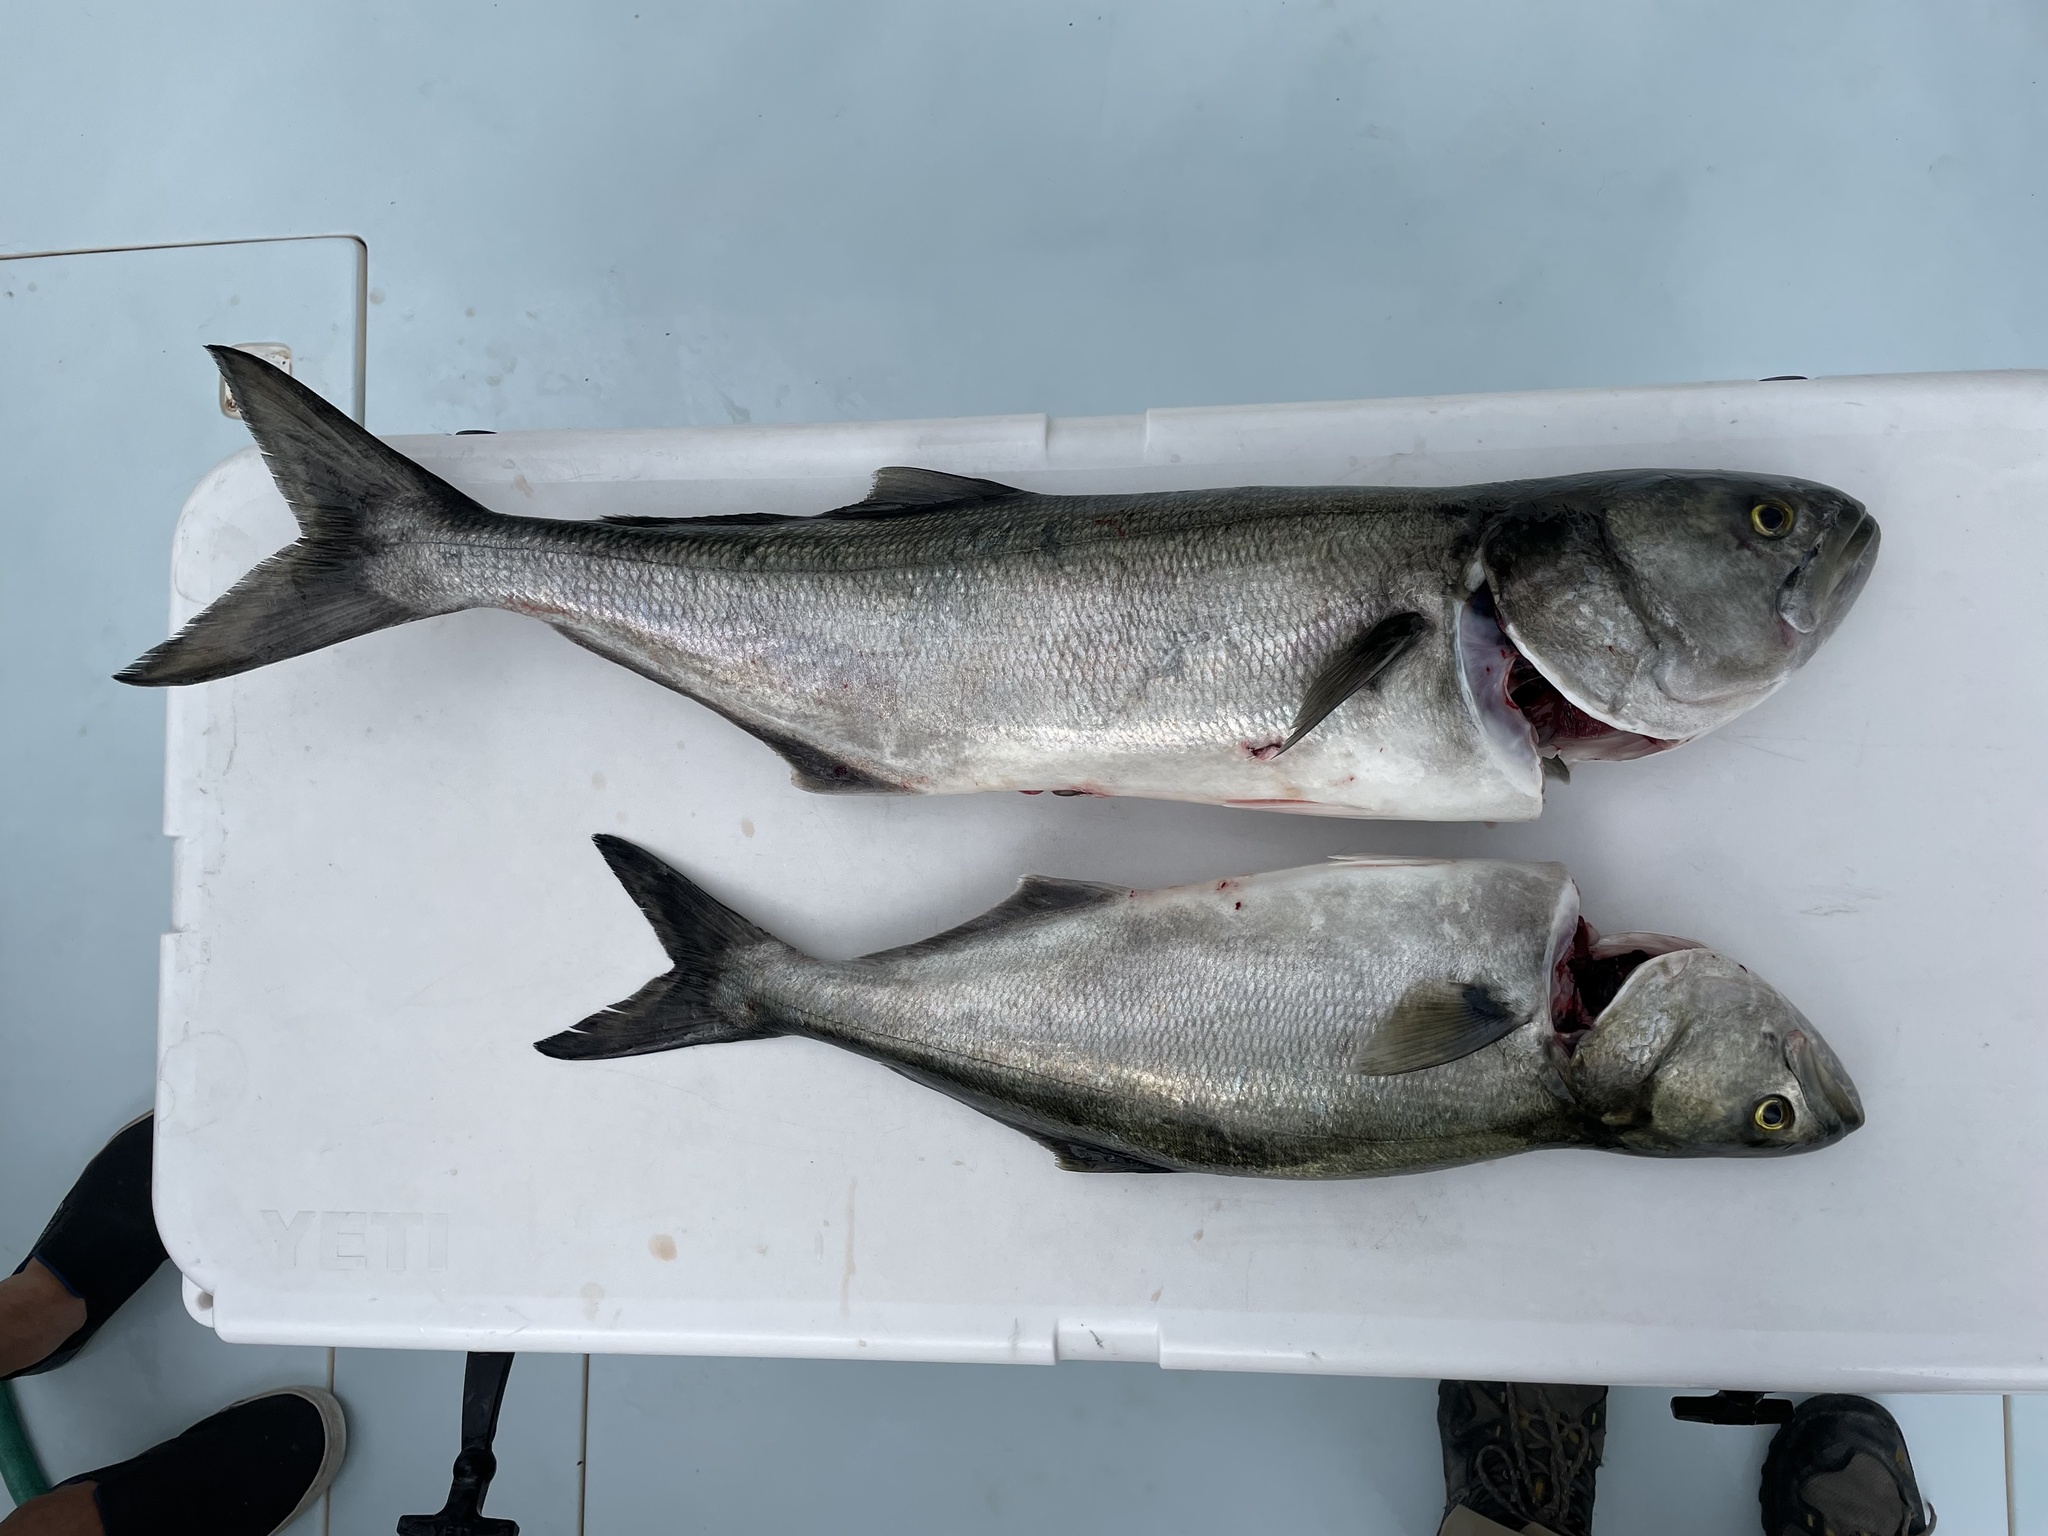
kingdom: Animalia
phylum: Chordata
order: Perciformes
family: Pomatomidae
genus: Pomatomus
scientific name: Pomatomus saltatrix
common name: Bluefish
